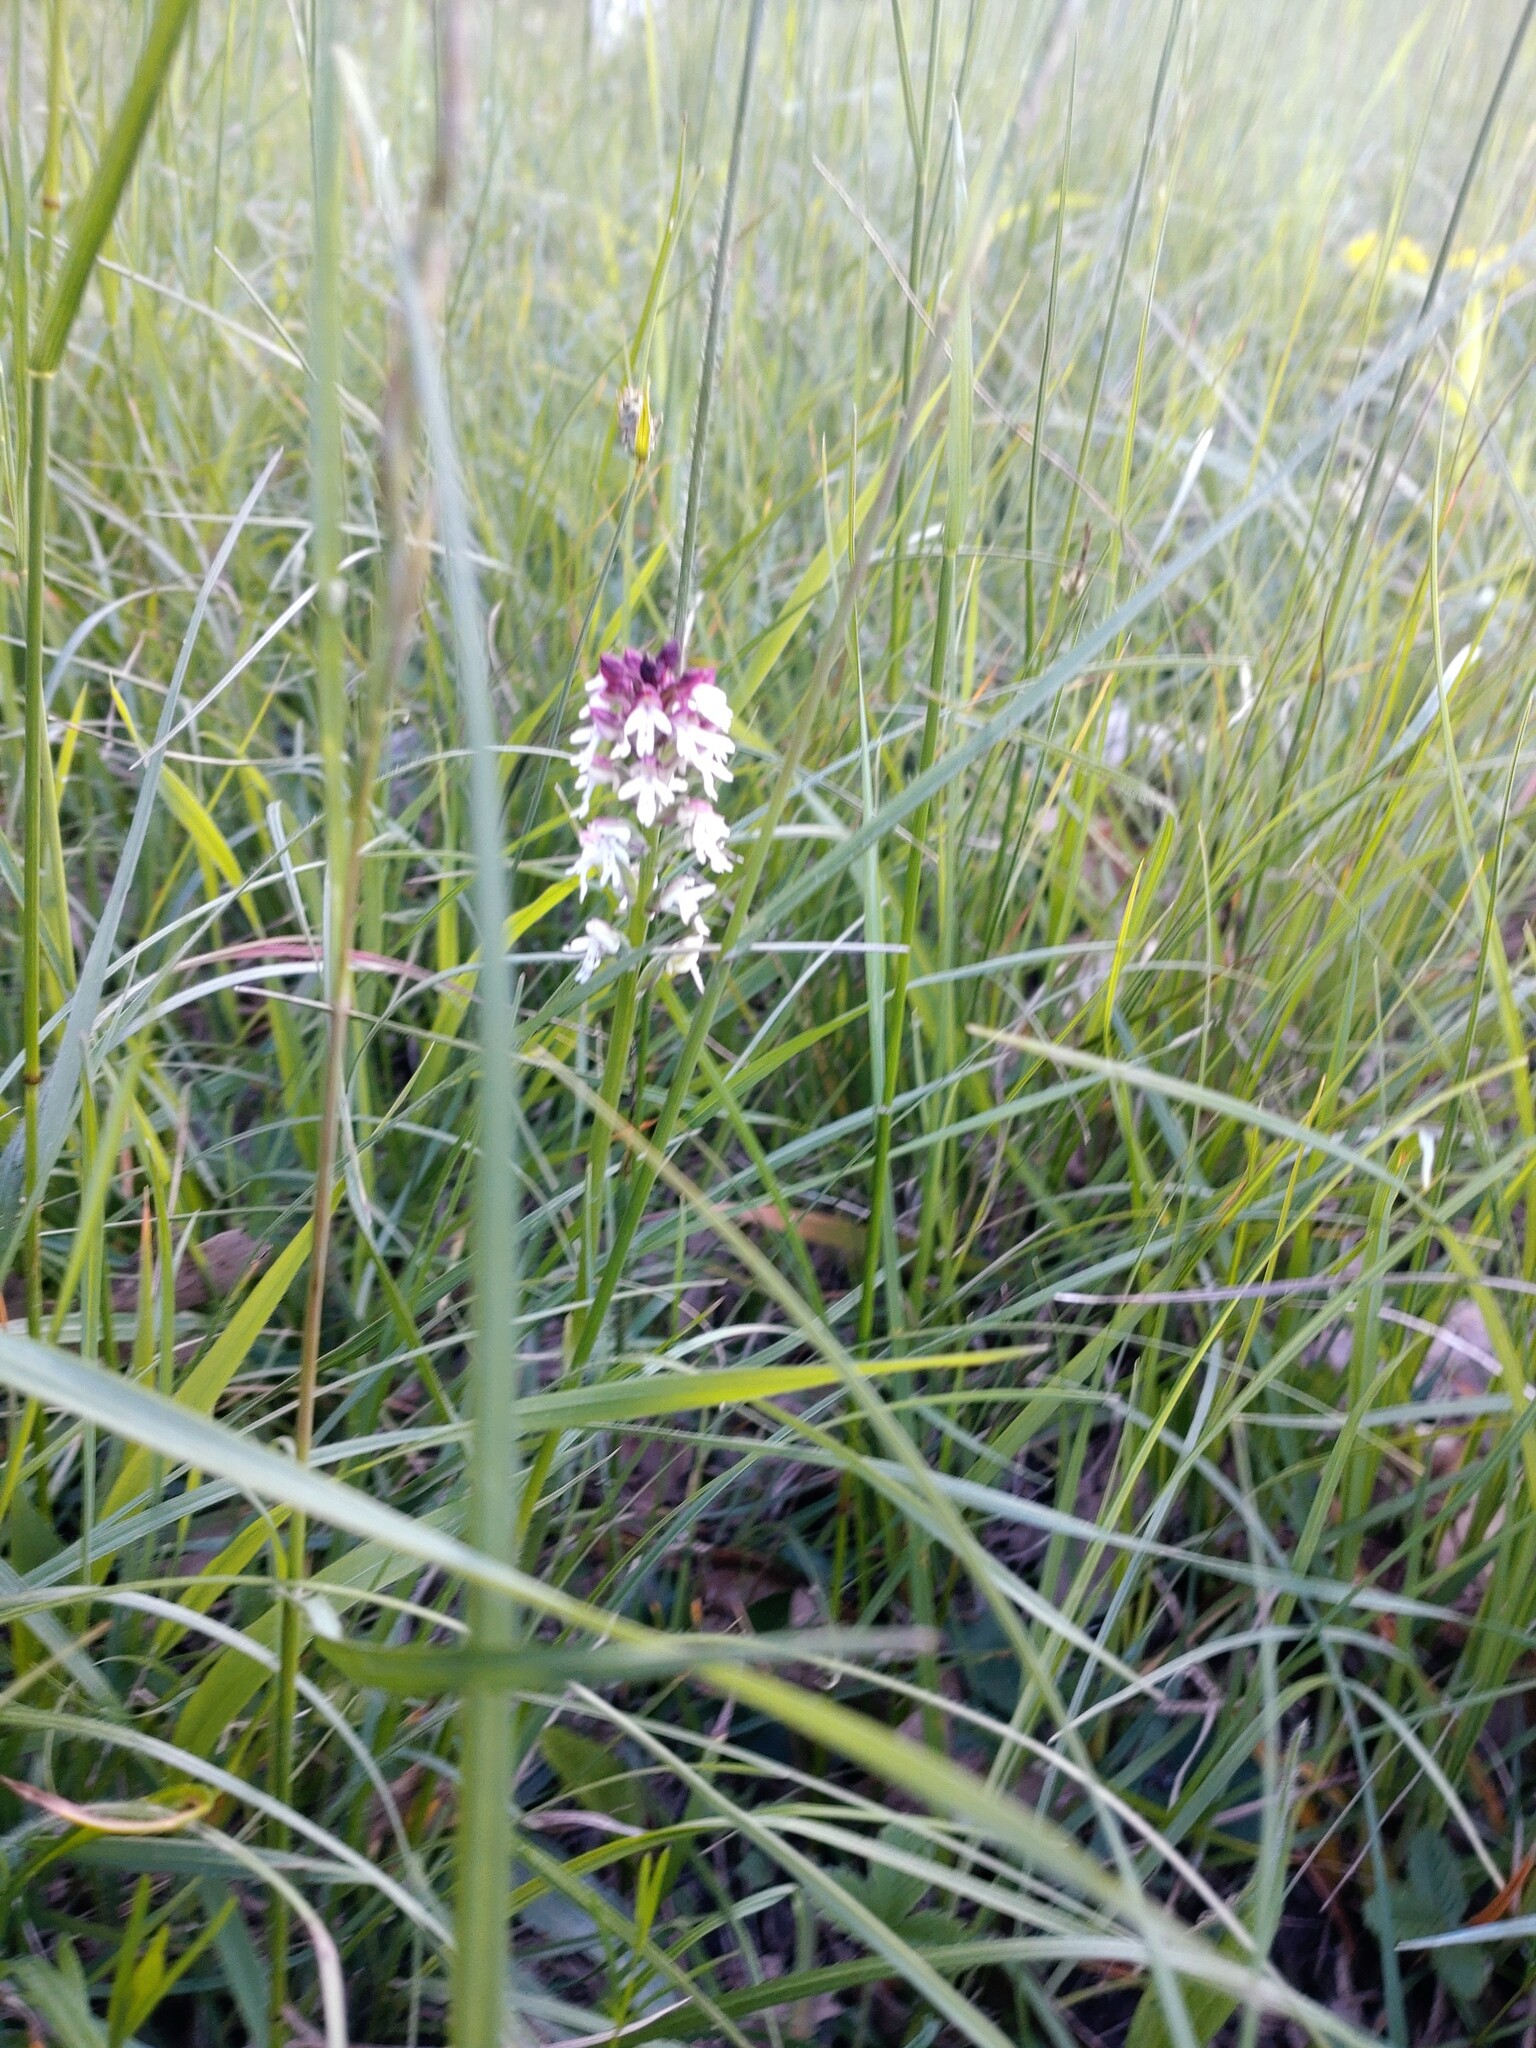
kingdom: Plantae
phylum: Tracheophyta
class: Liliopsida
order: Asparagales
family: Orchidaceae
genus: Neotinea
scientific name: Neotinea ustulata
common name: Burnt orchid
